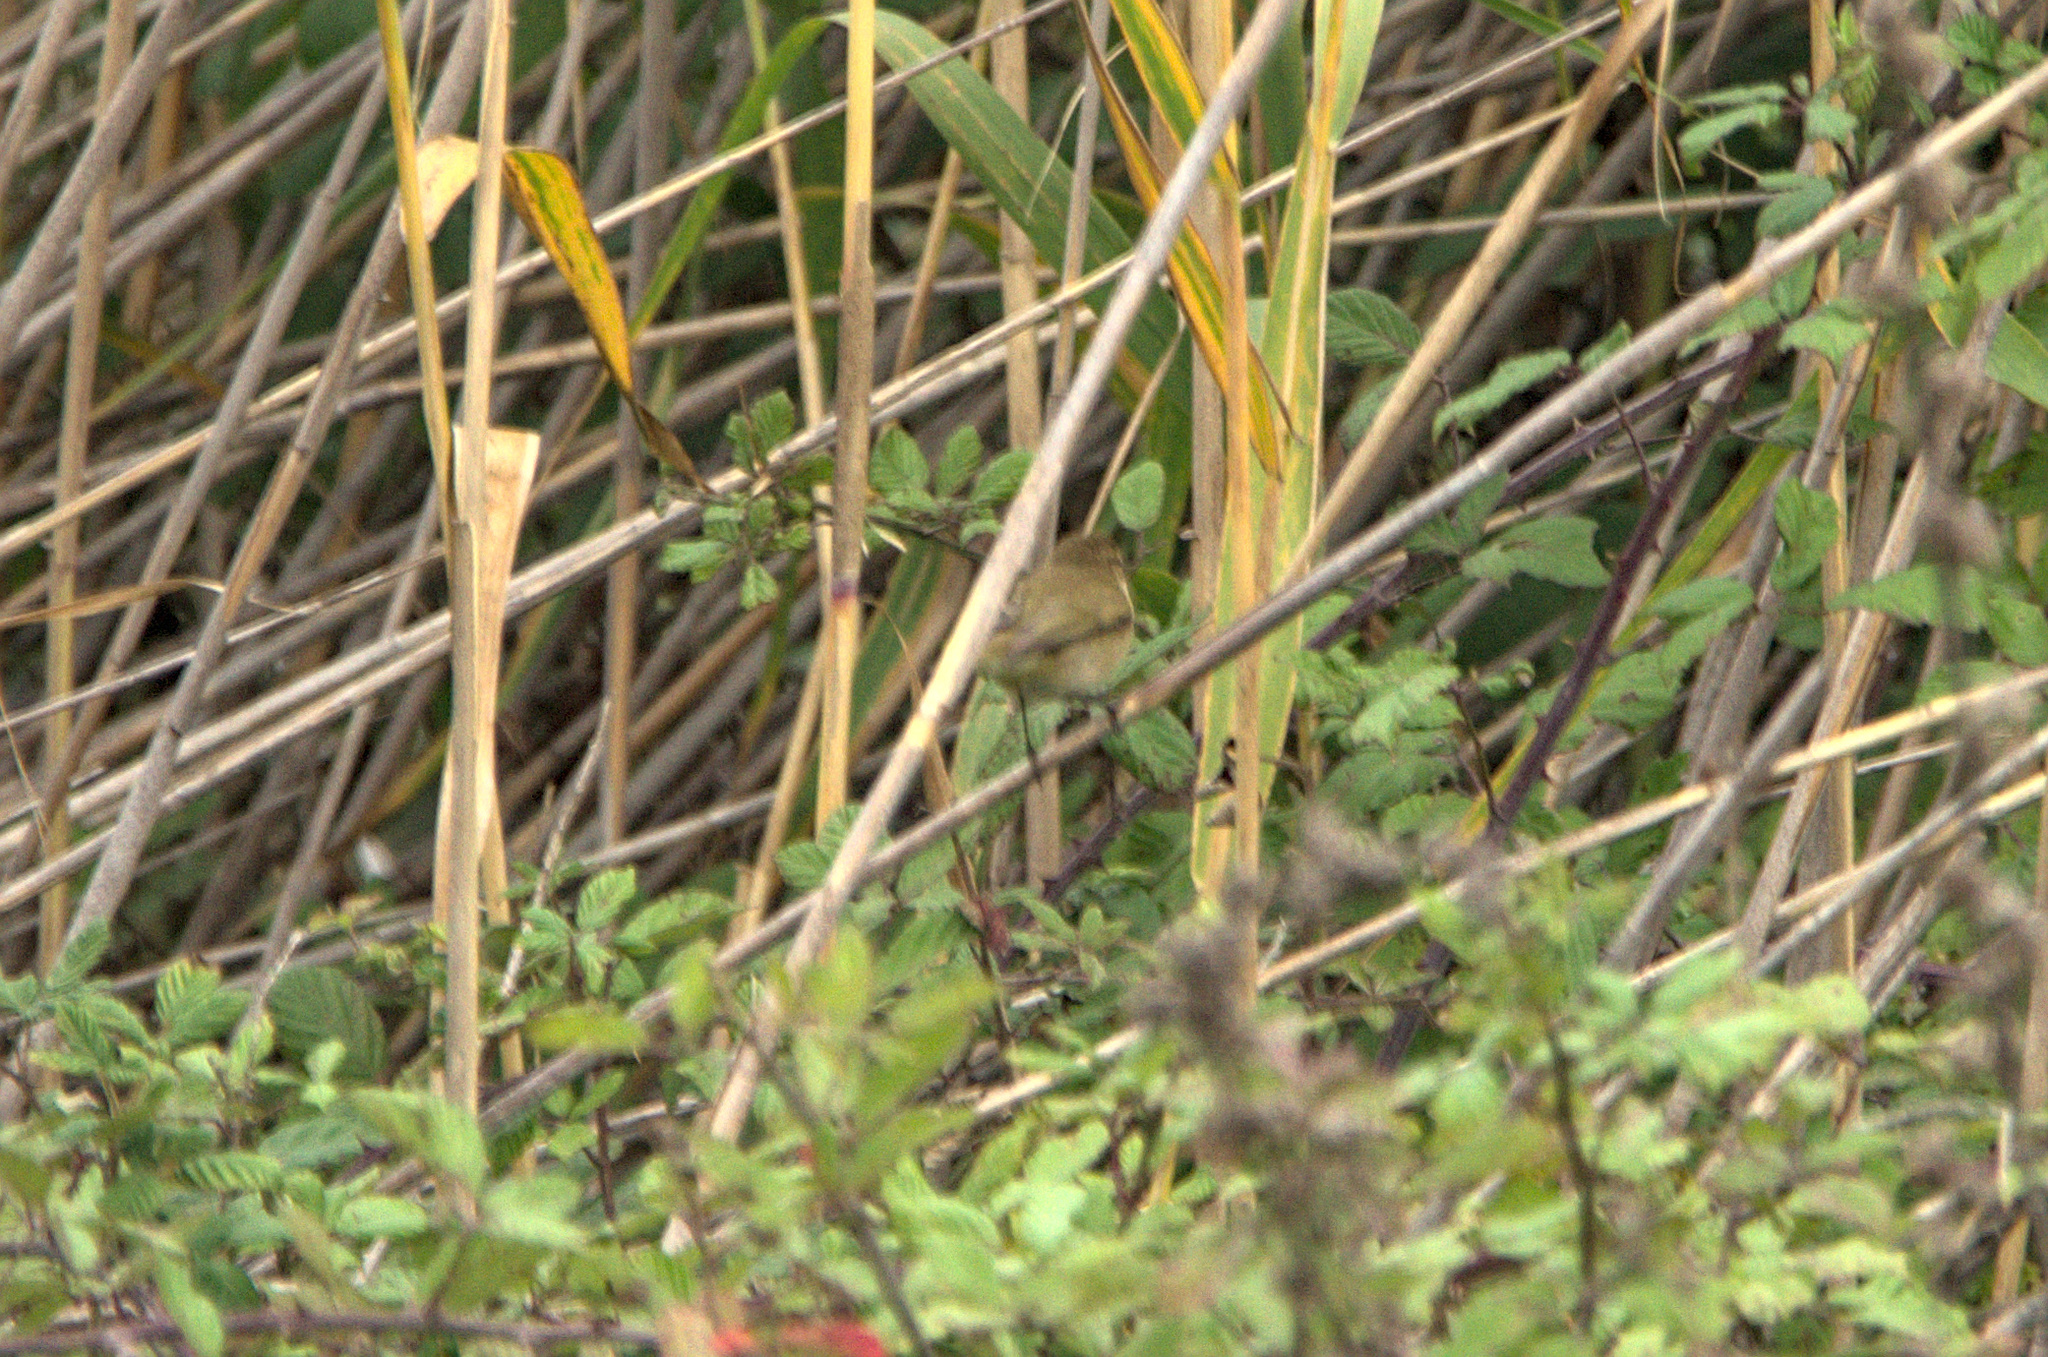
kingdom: Animalia
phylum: Chordata
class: Aves
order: Passeriformes
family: Phylloscopidae
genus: Phylloscopus
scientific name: Phylloscopus collybita
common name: Common chiffchaff
